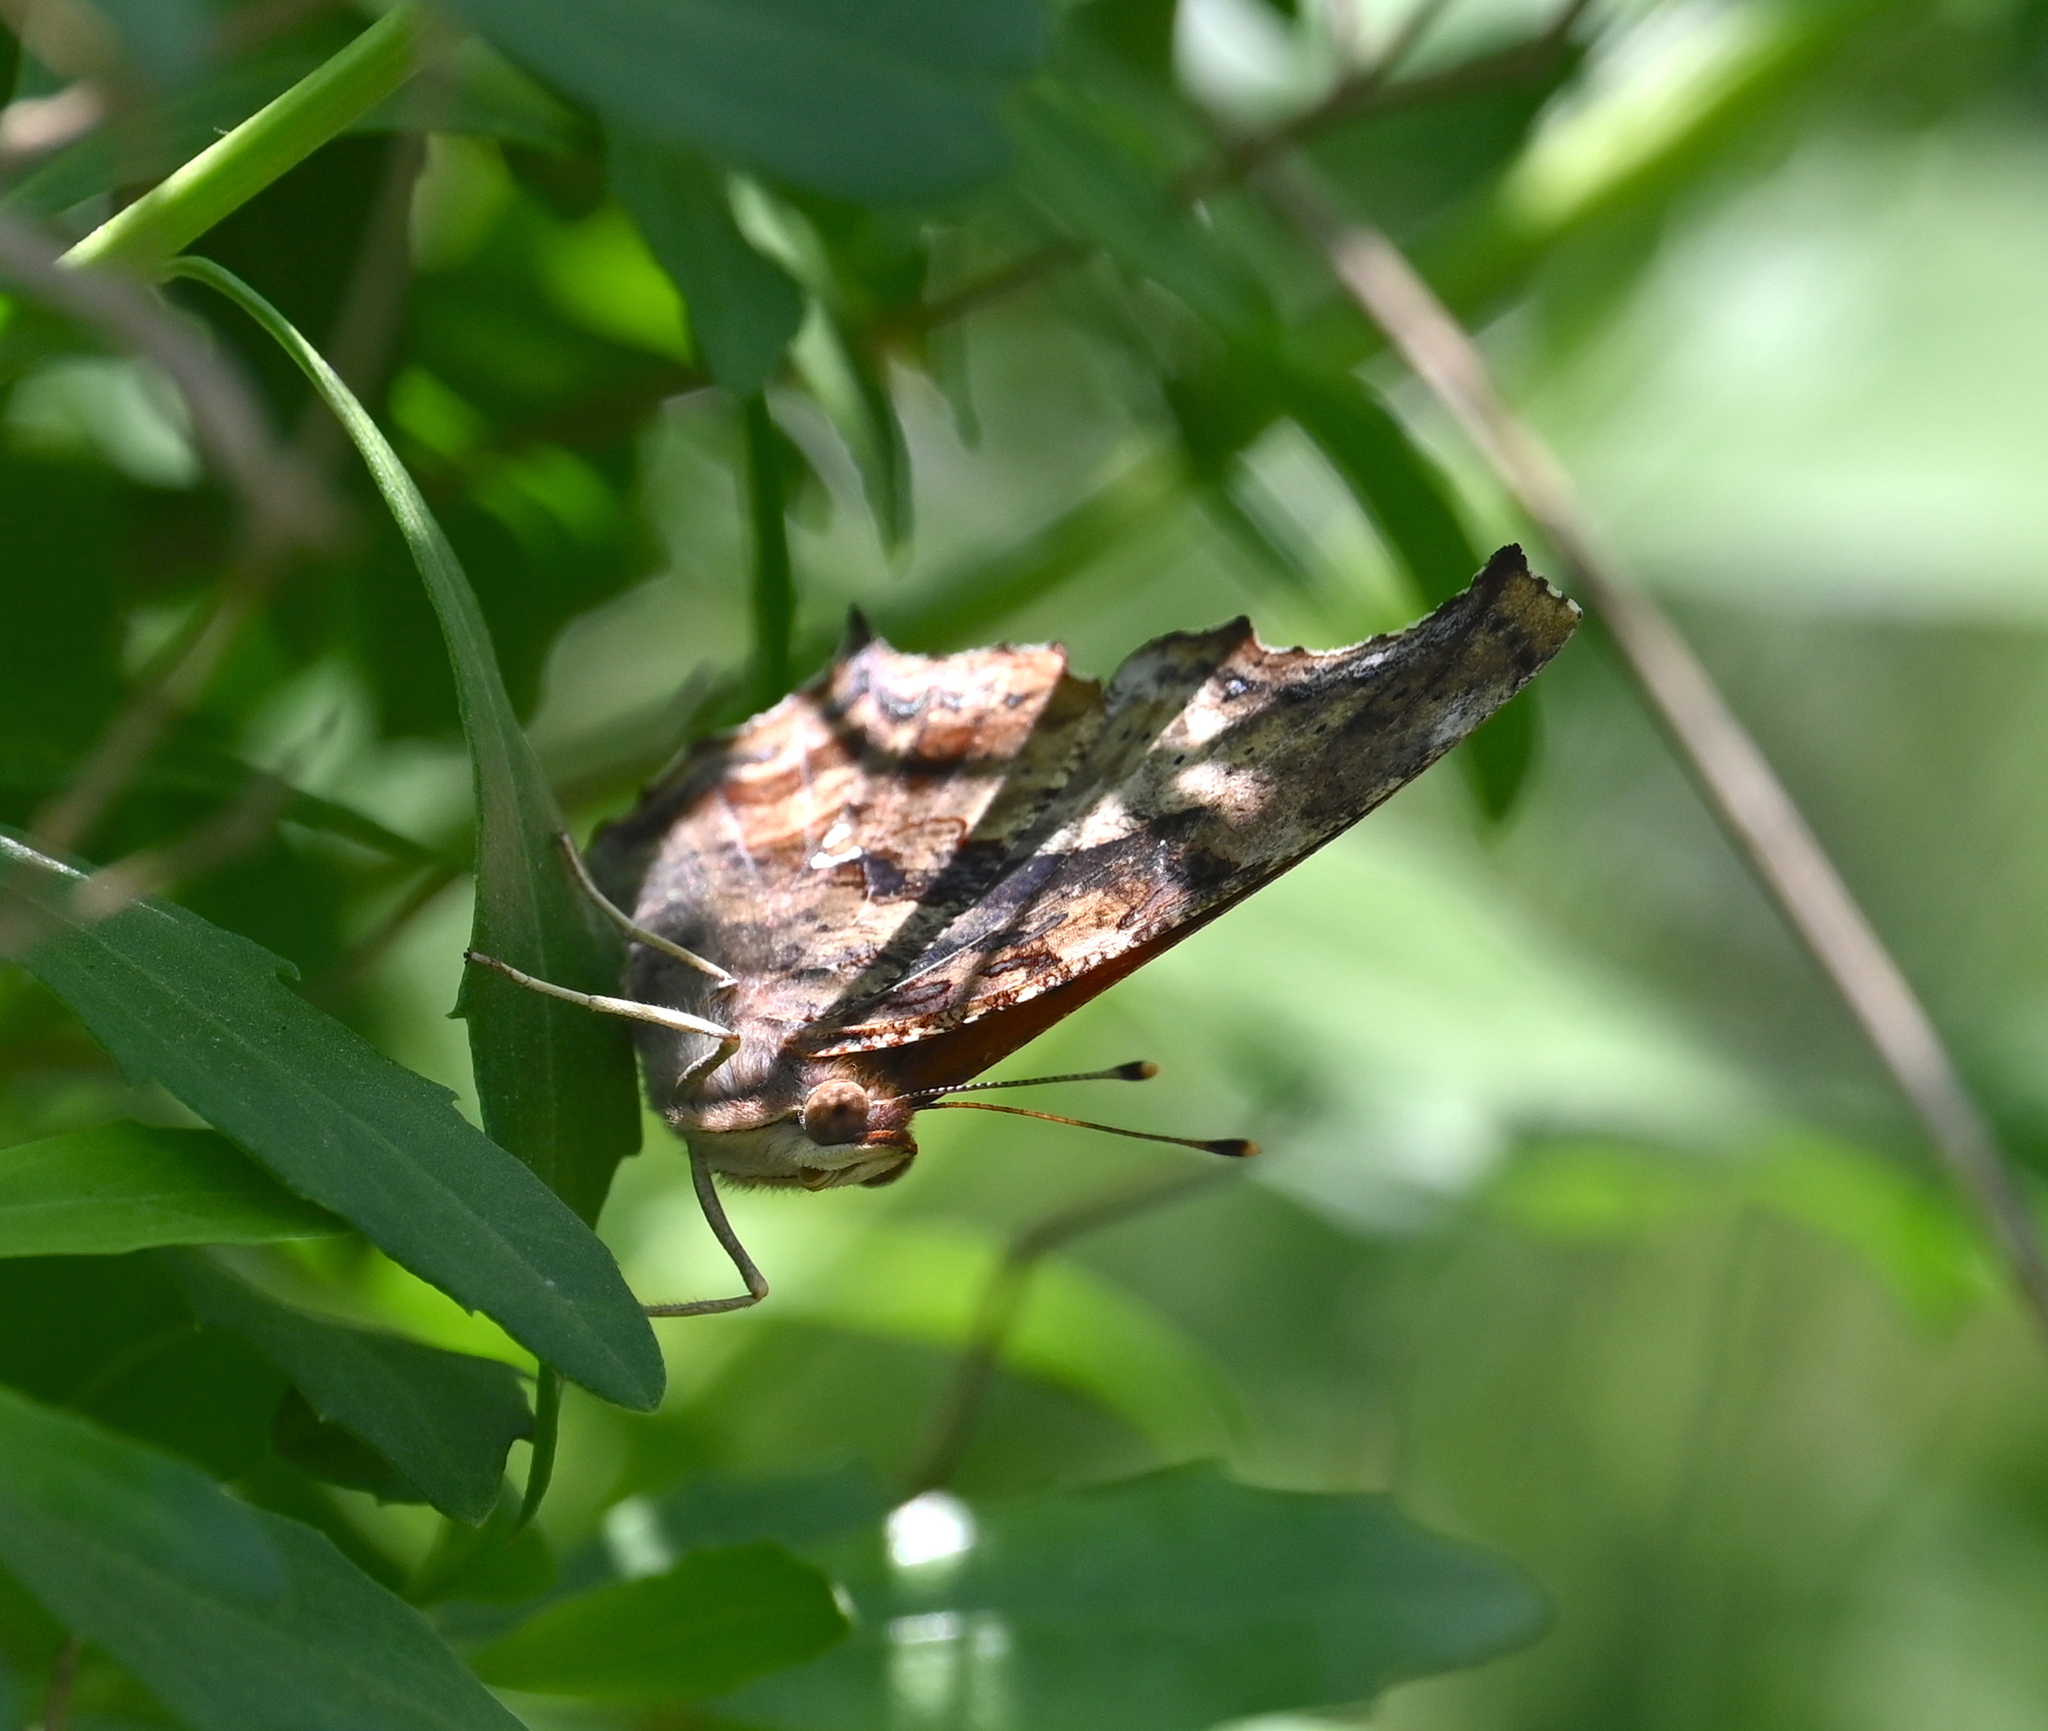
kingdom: Animalia
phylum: Arthropoda
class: Insecta
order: Lepidoptera
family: Nymphalidae
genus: Polygonia
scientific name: Polygonia interrogationis
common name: Question mark
